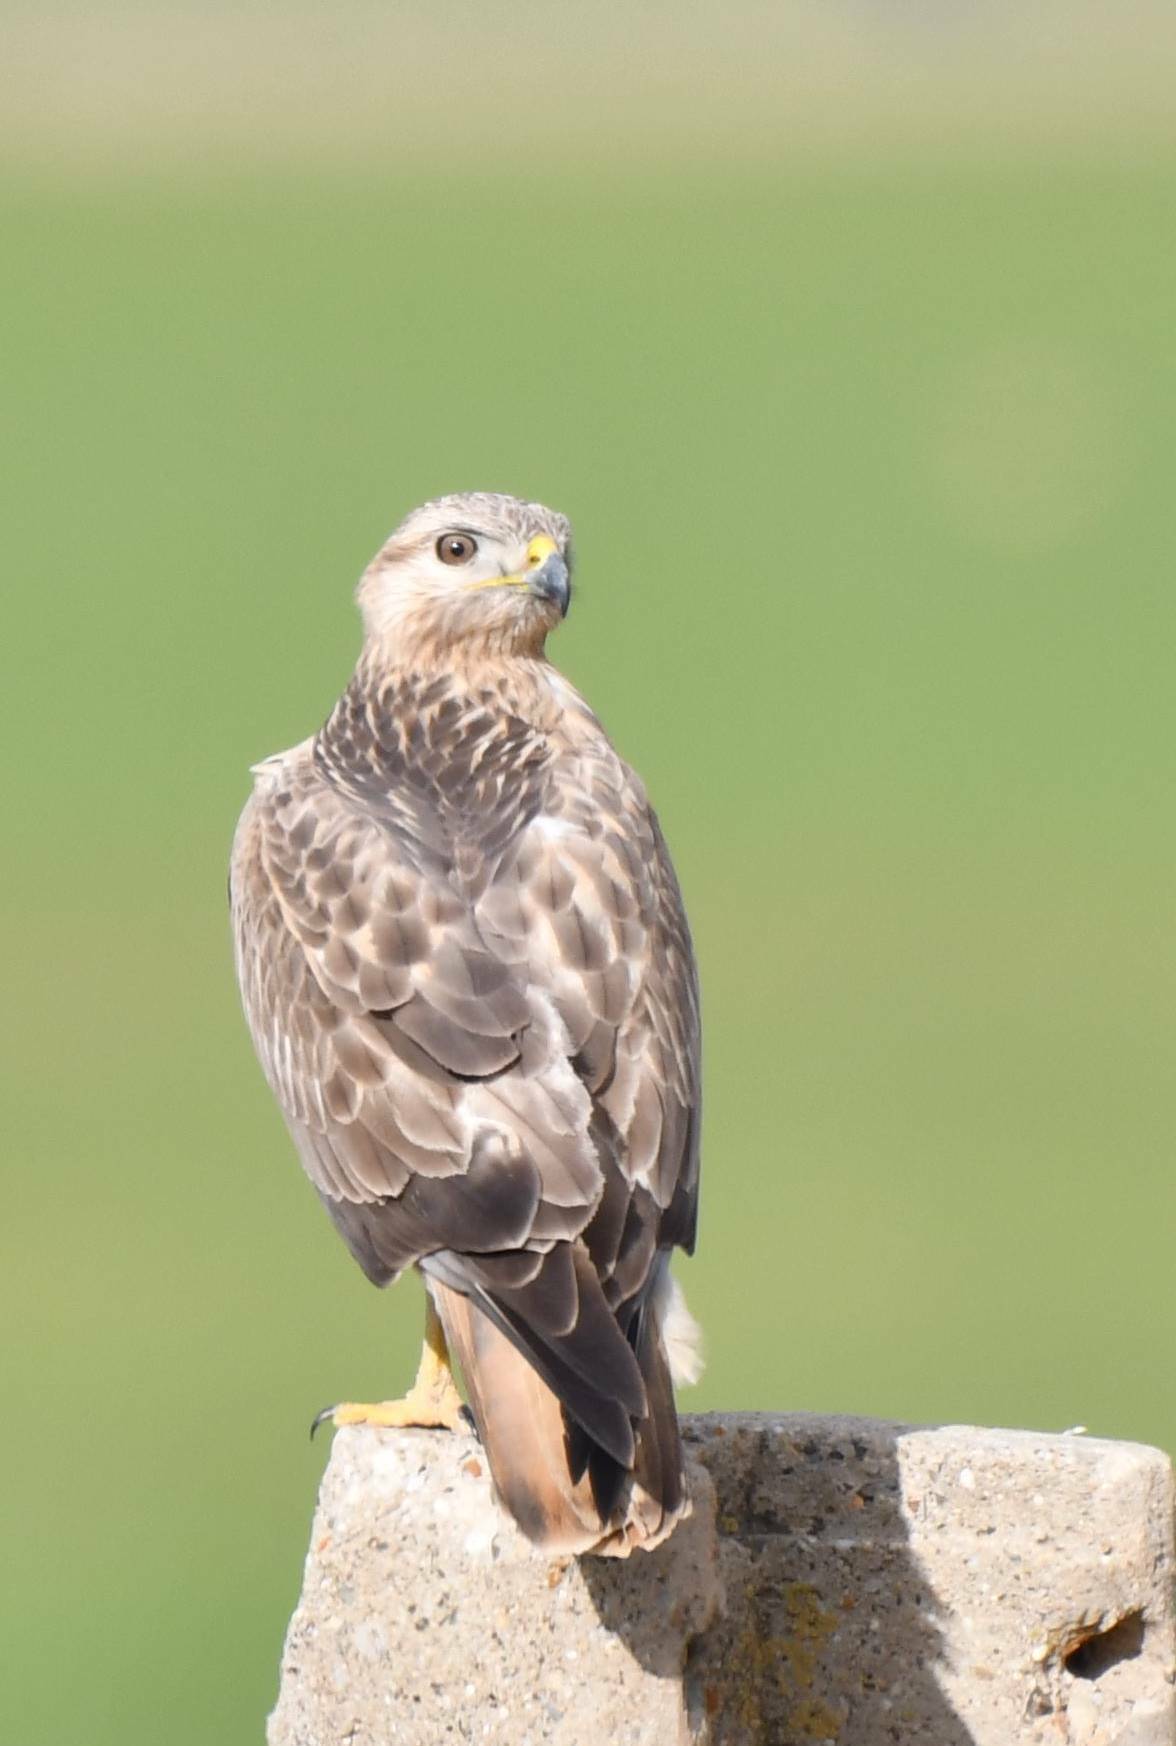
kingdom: Animalia
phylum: Chordata
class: Aves
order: Accipitriformes
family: Accipitridae
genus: Buteo
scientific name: Buteo rufinus
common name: Long-legged buzzard
